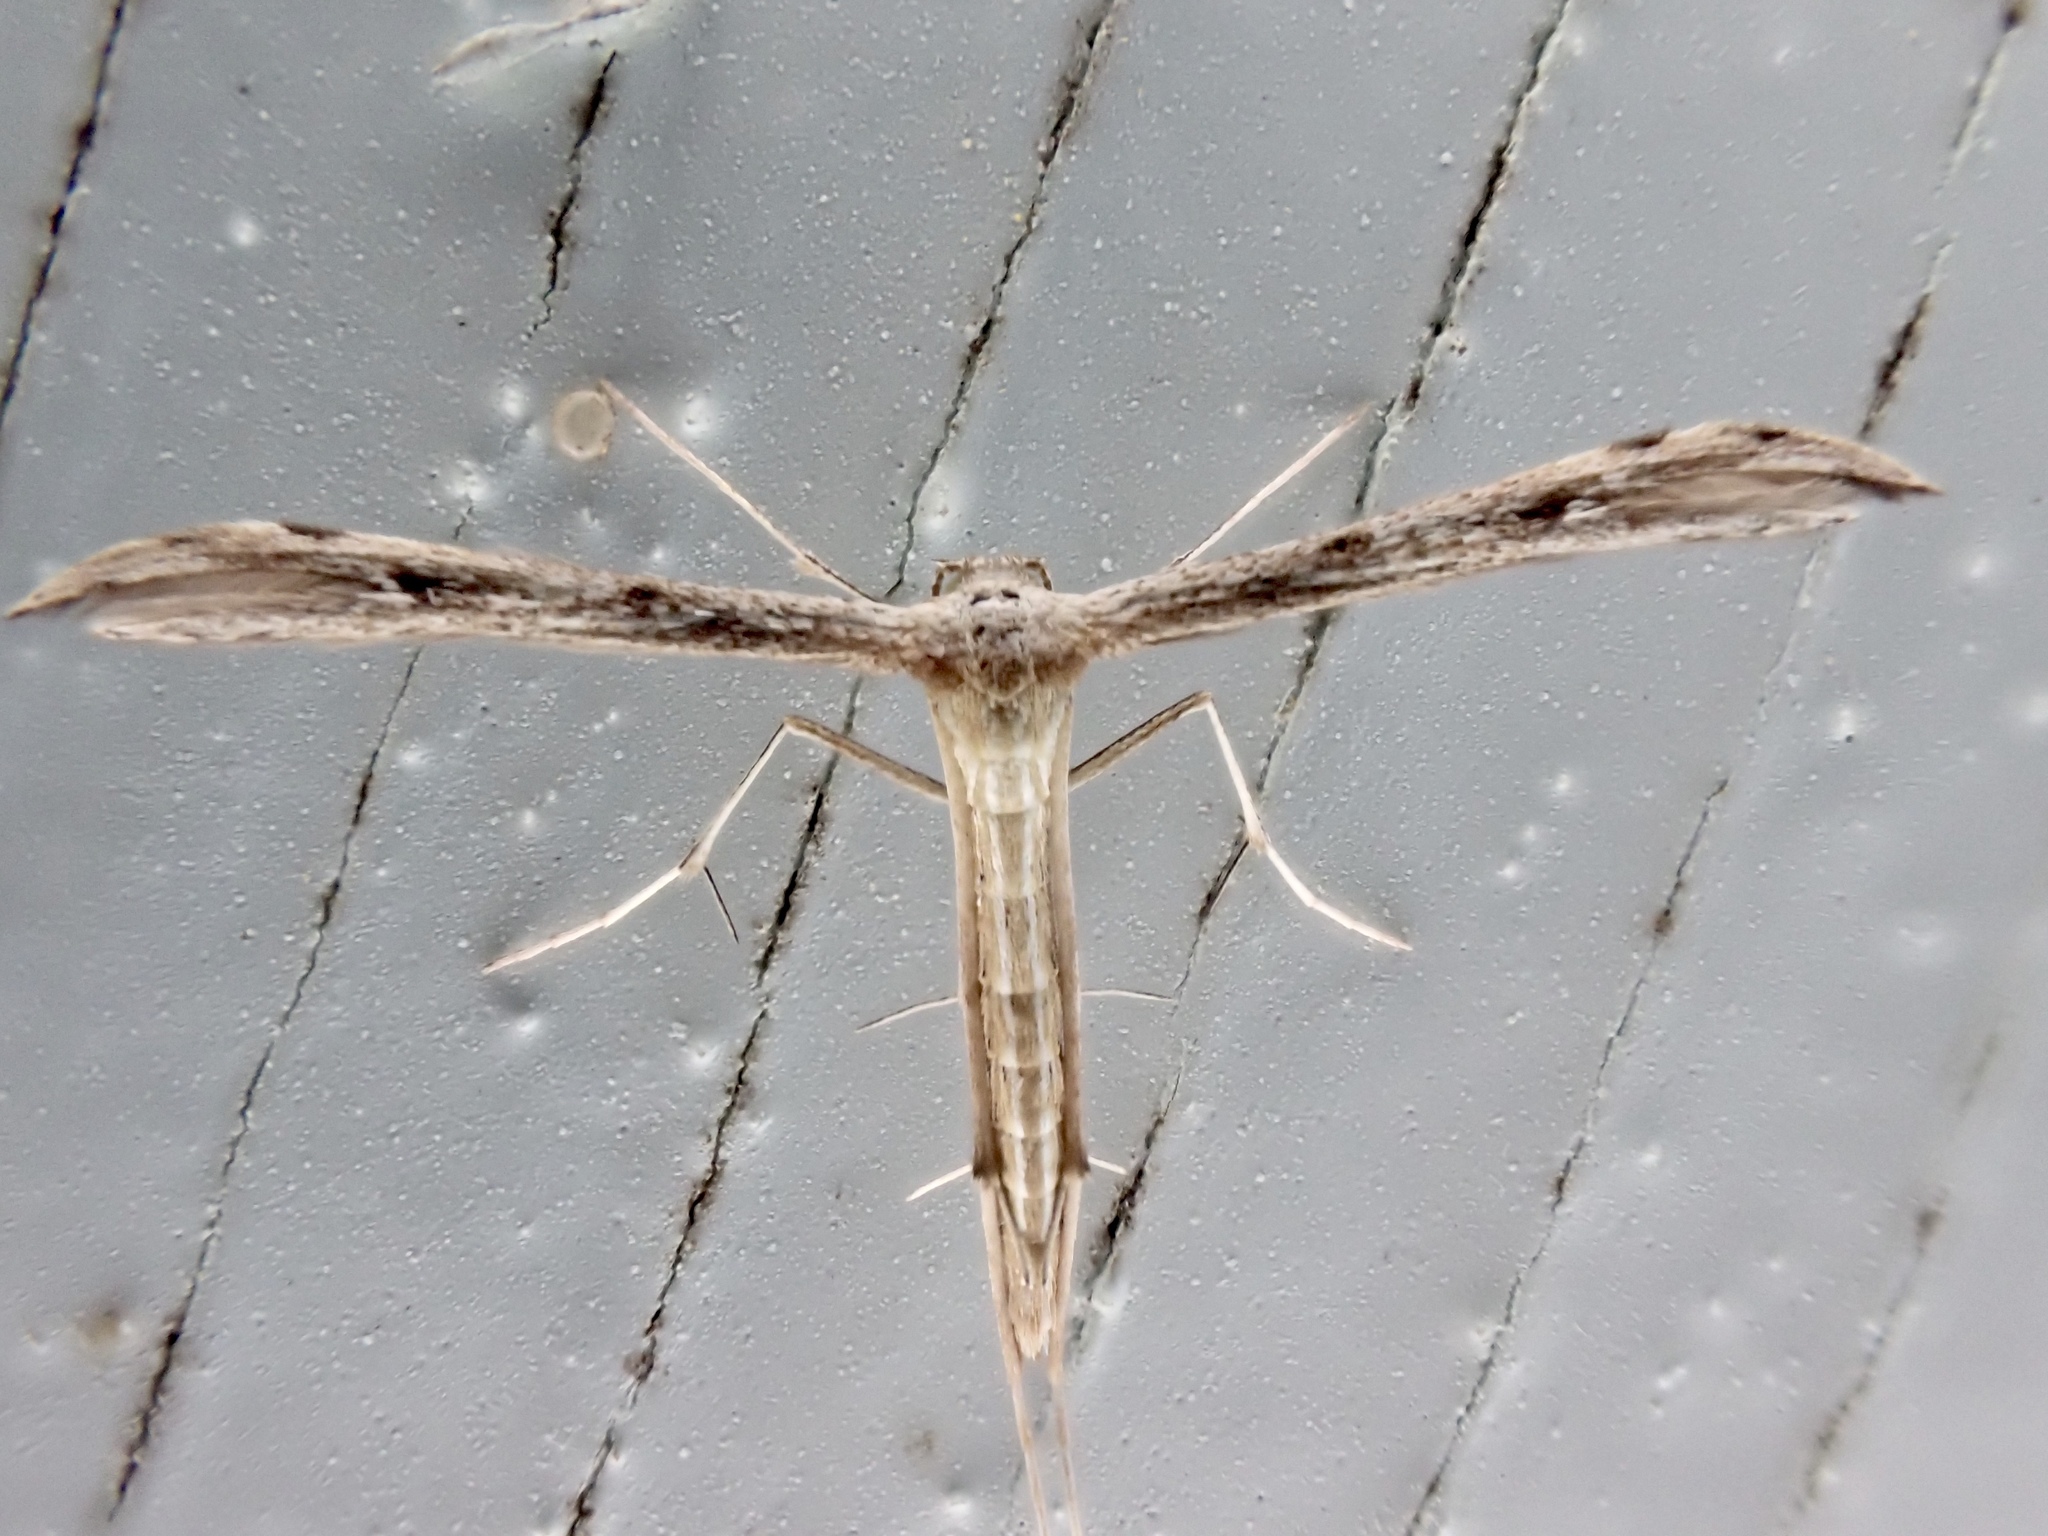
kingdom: Animalia
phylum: Arthropoda
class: Insecta
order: Lepidoptera
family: Pterophoridae
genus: Pselnophorus
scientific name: Pselnophorus belfragei
